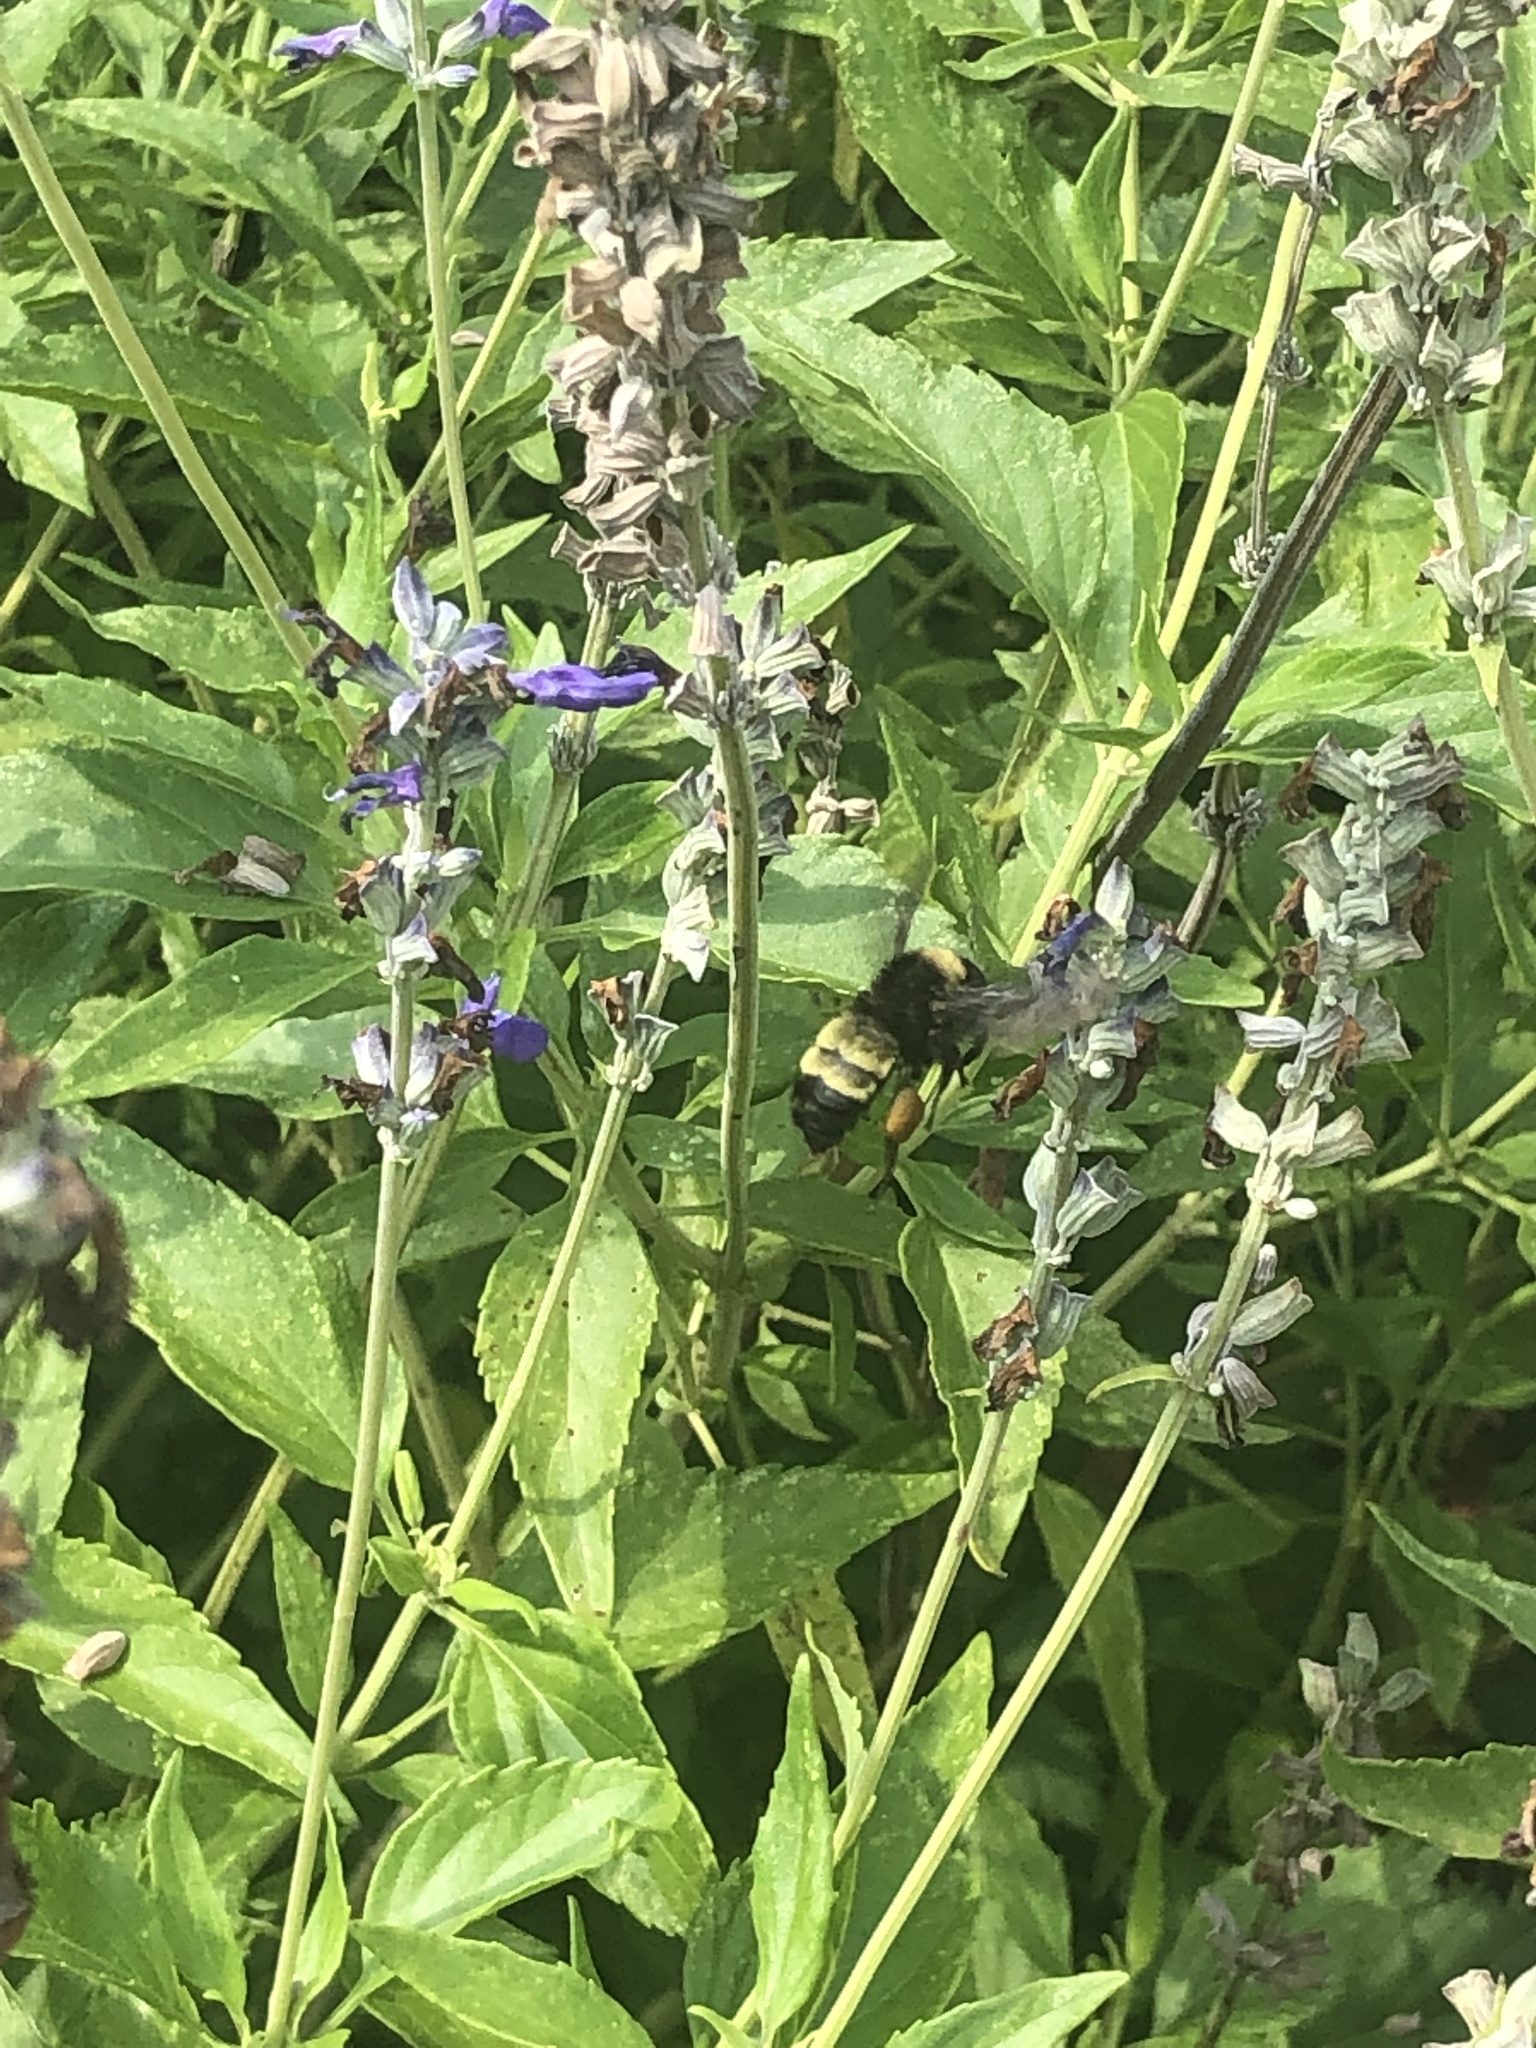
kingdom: Animalia
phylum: Arthropoda
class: Insecta
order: Hymenoptera
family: Apidae
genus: Bombus
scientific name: Bombus pensylvanicus
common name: Bumble bee
